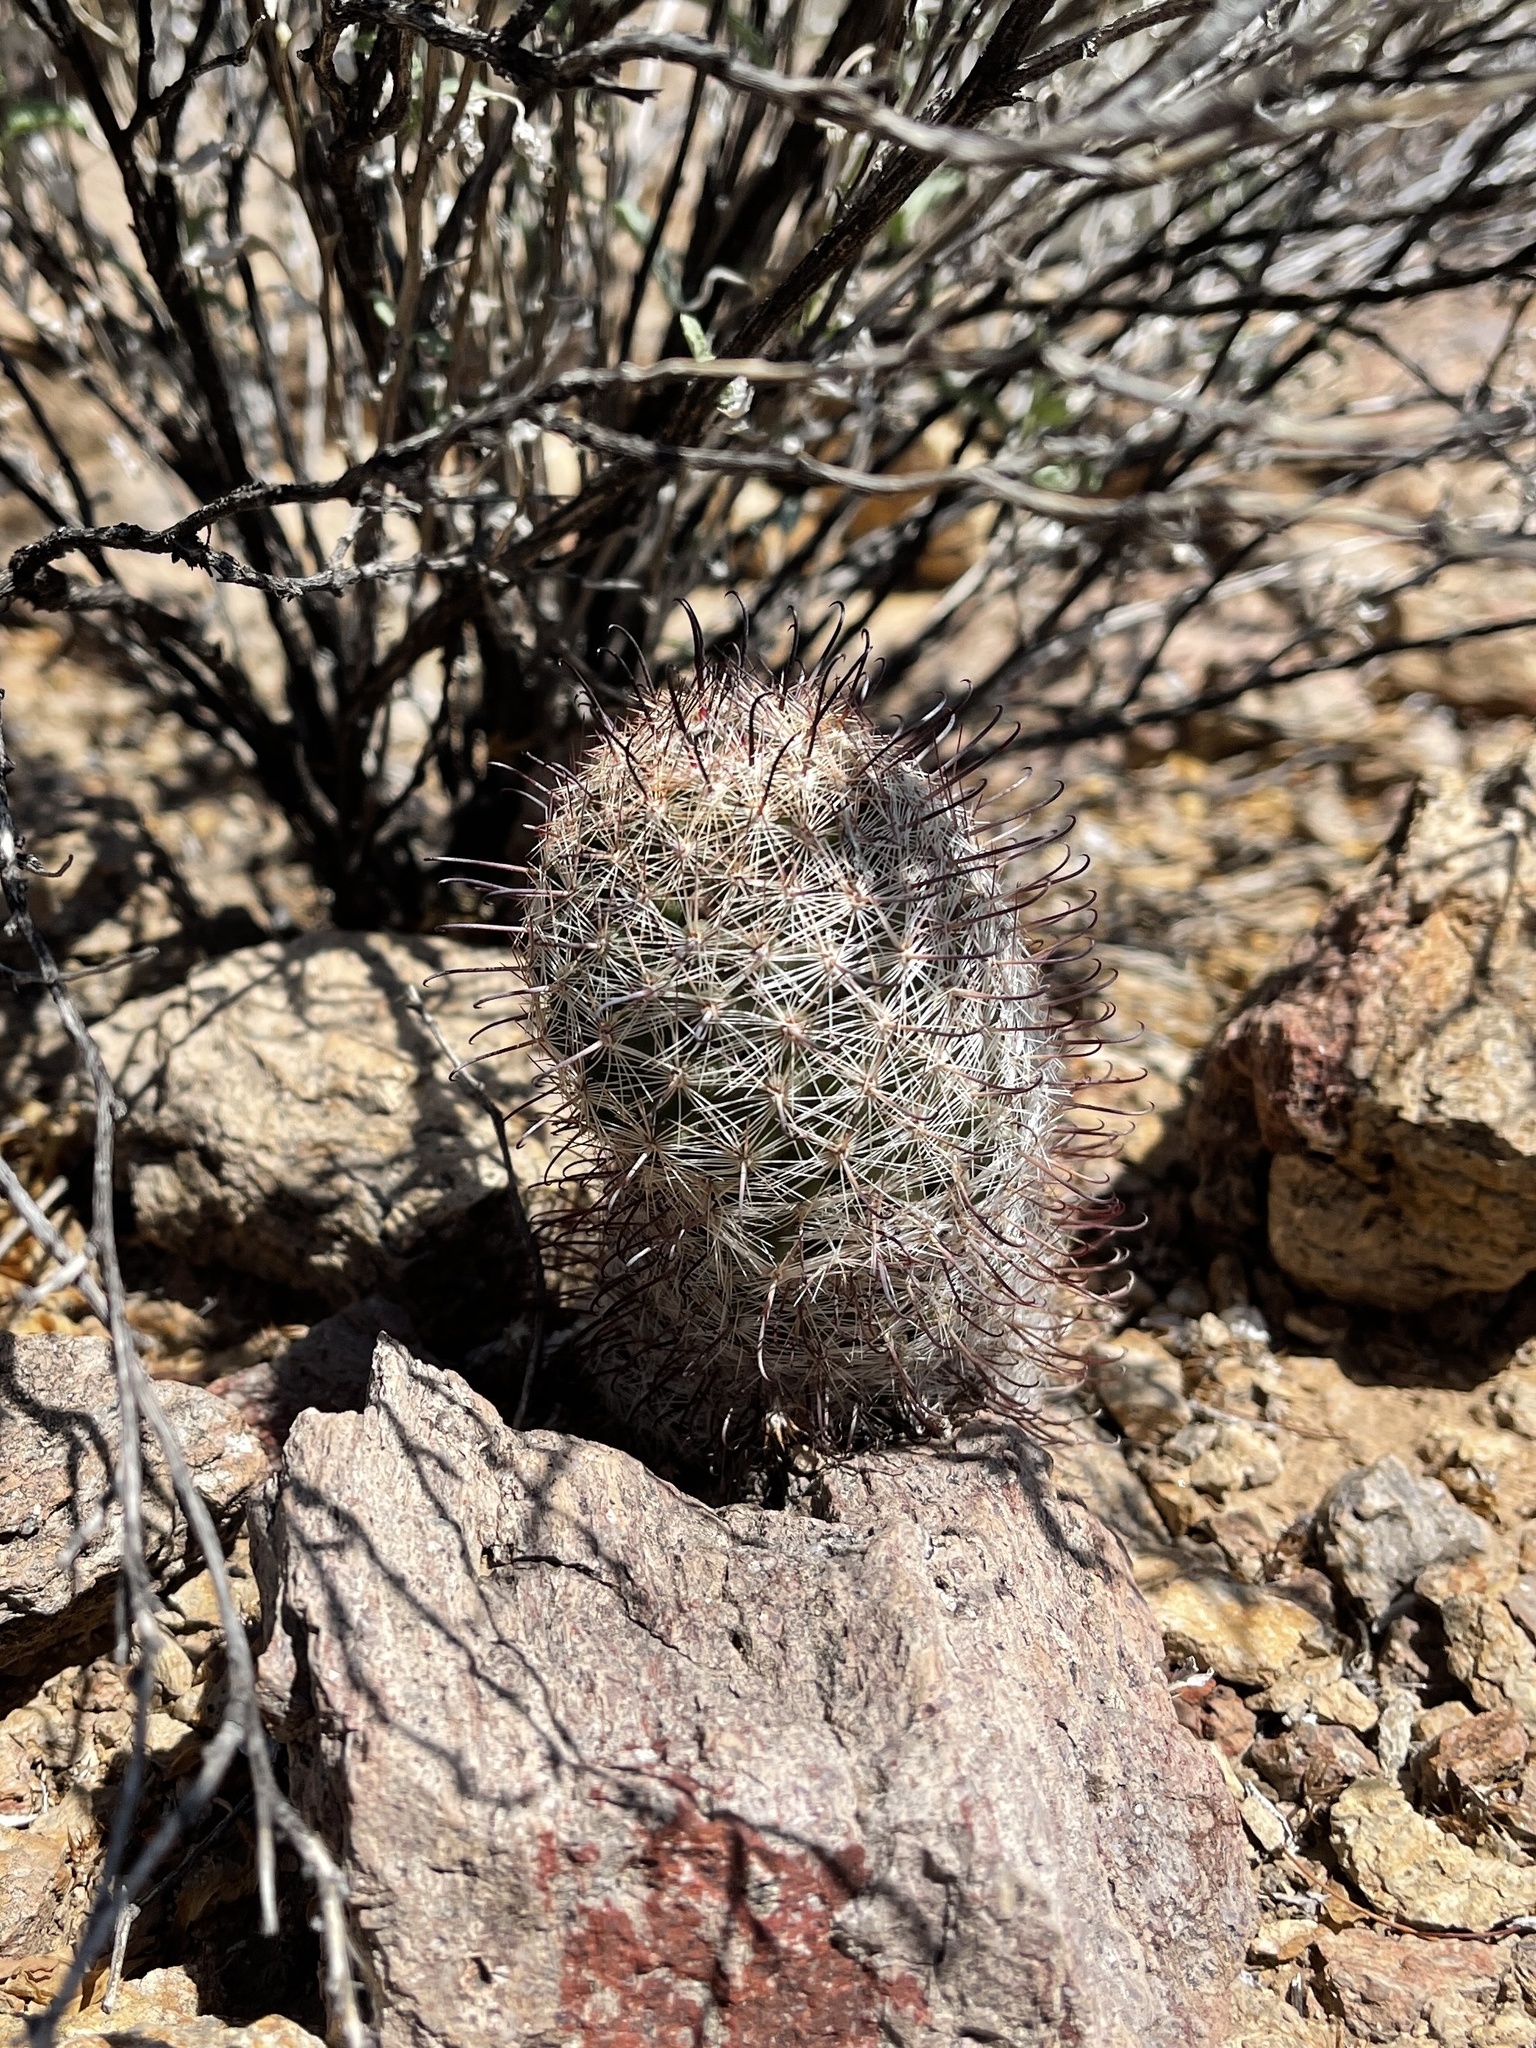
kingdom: Plantae
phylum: Tracheophyta
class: Magnoliopsida
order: Caryophyllales
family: Cactaceae
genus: Cochemiea
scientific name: Cochemiea grahamii
